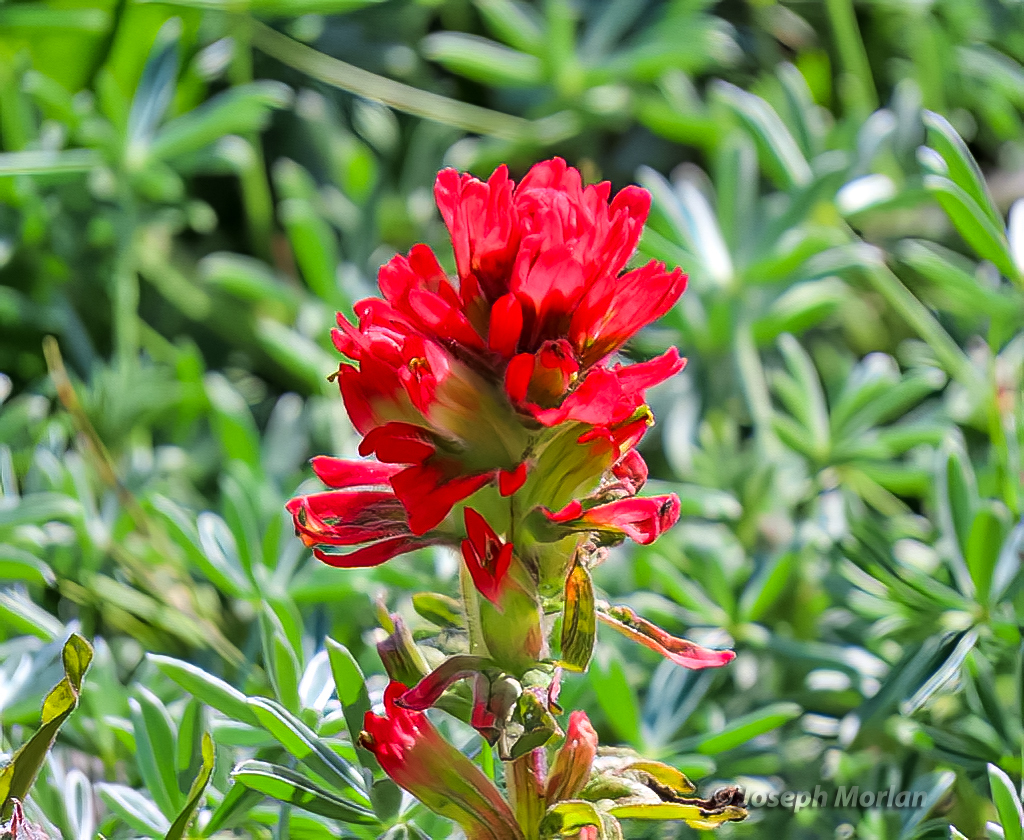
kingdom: Plantae
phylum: Tracheophyta
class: Magnoliopsida
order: Lamiales
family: Orobanchaceae
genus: Castilleja
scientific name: Castilleja affinis
